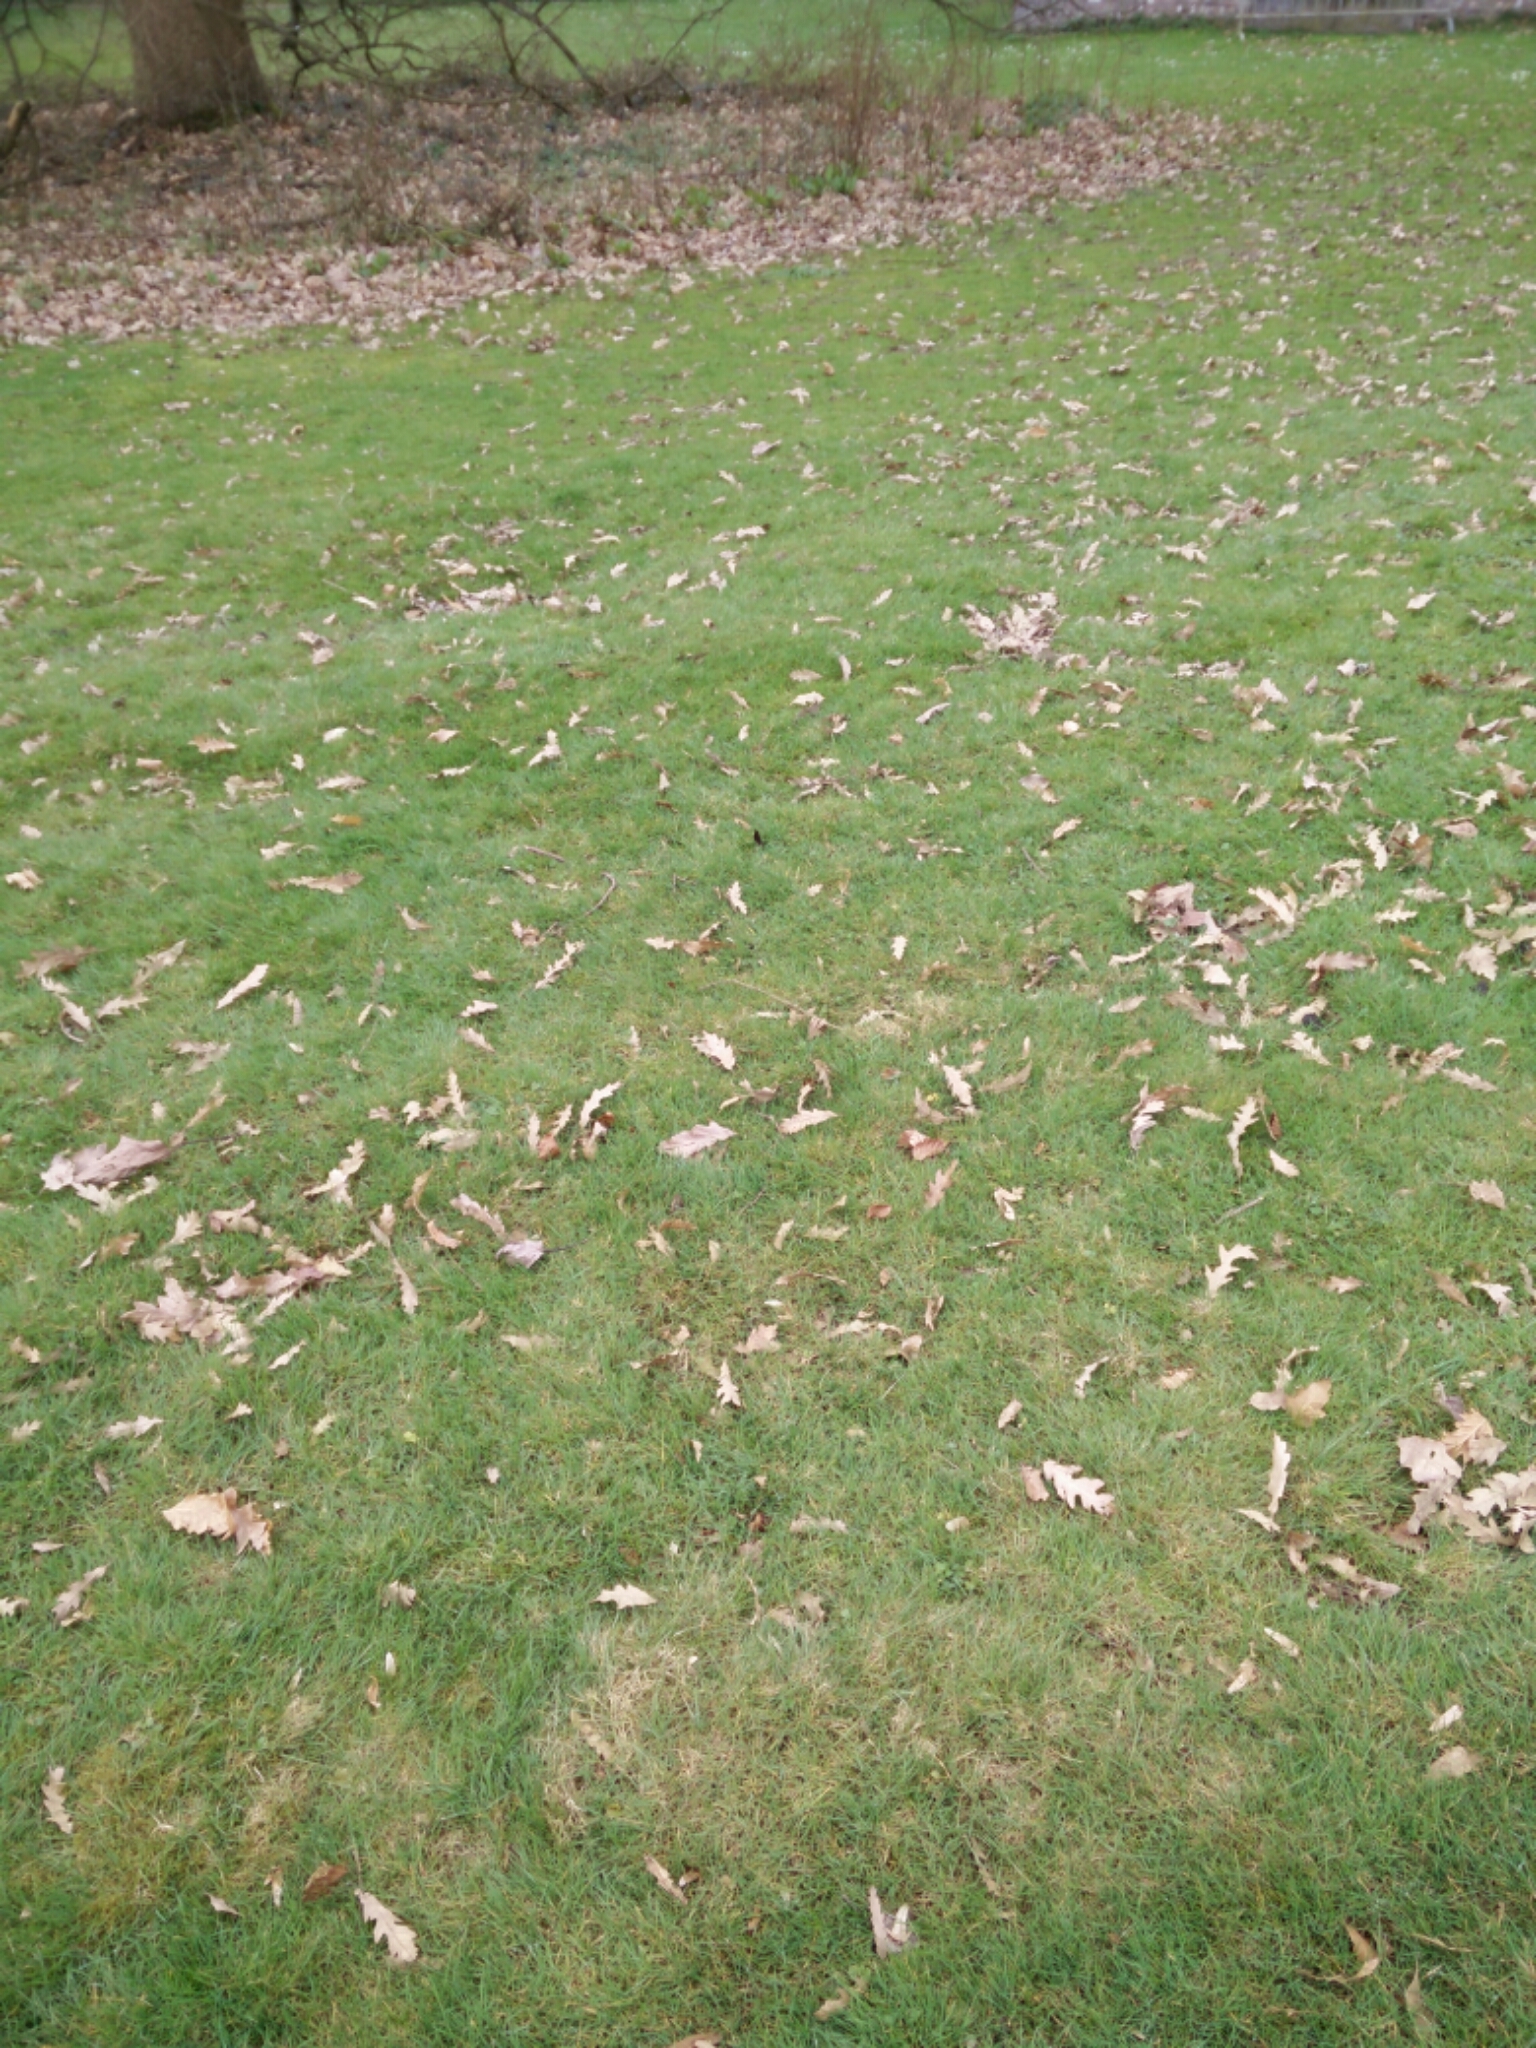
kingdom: Animalia
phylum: Arthropoda
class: Insecta
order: Lepidoptera
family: Nymphalidae
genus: Aglais
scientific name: Aglais io
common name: Peacock
